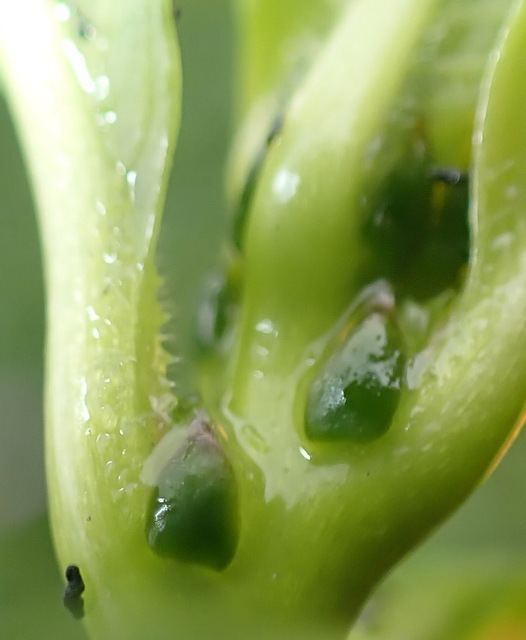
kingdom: Animalia
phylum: Arthropoda
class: Insecta
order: Coleoptera
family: Chrysomelidae
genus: Lysathia
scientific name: Lysathia ludoviciana
